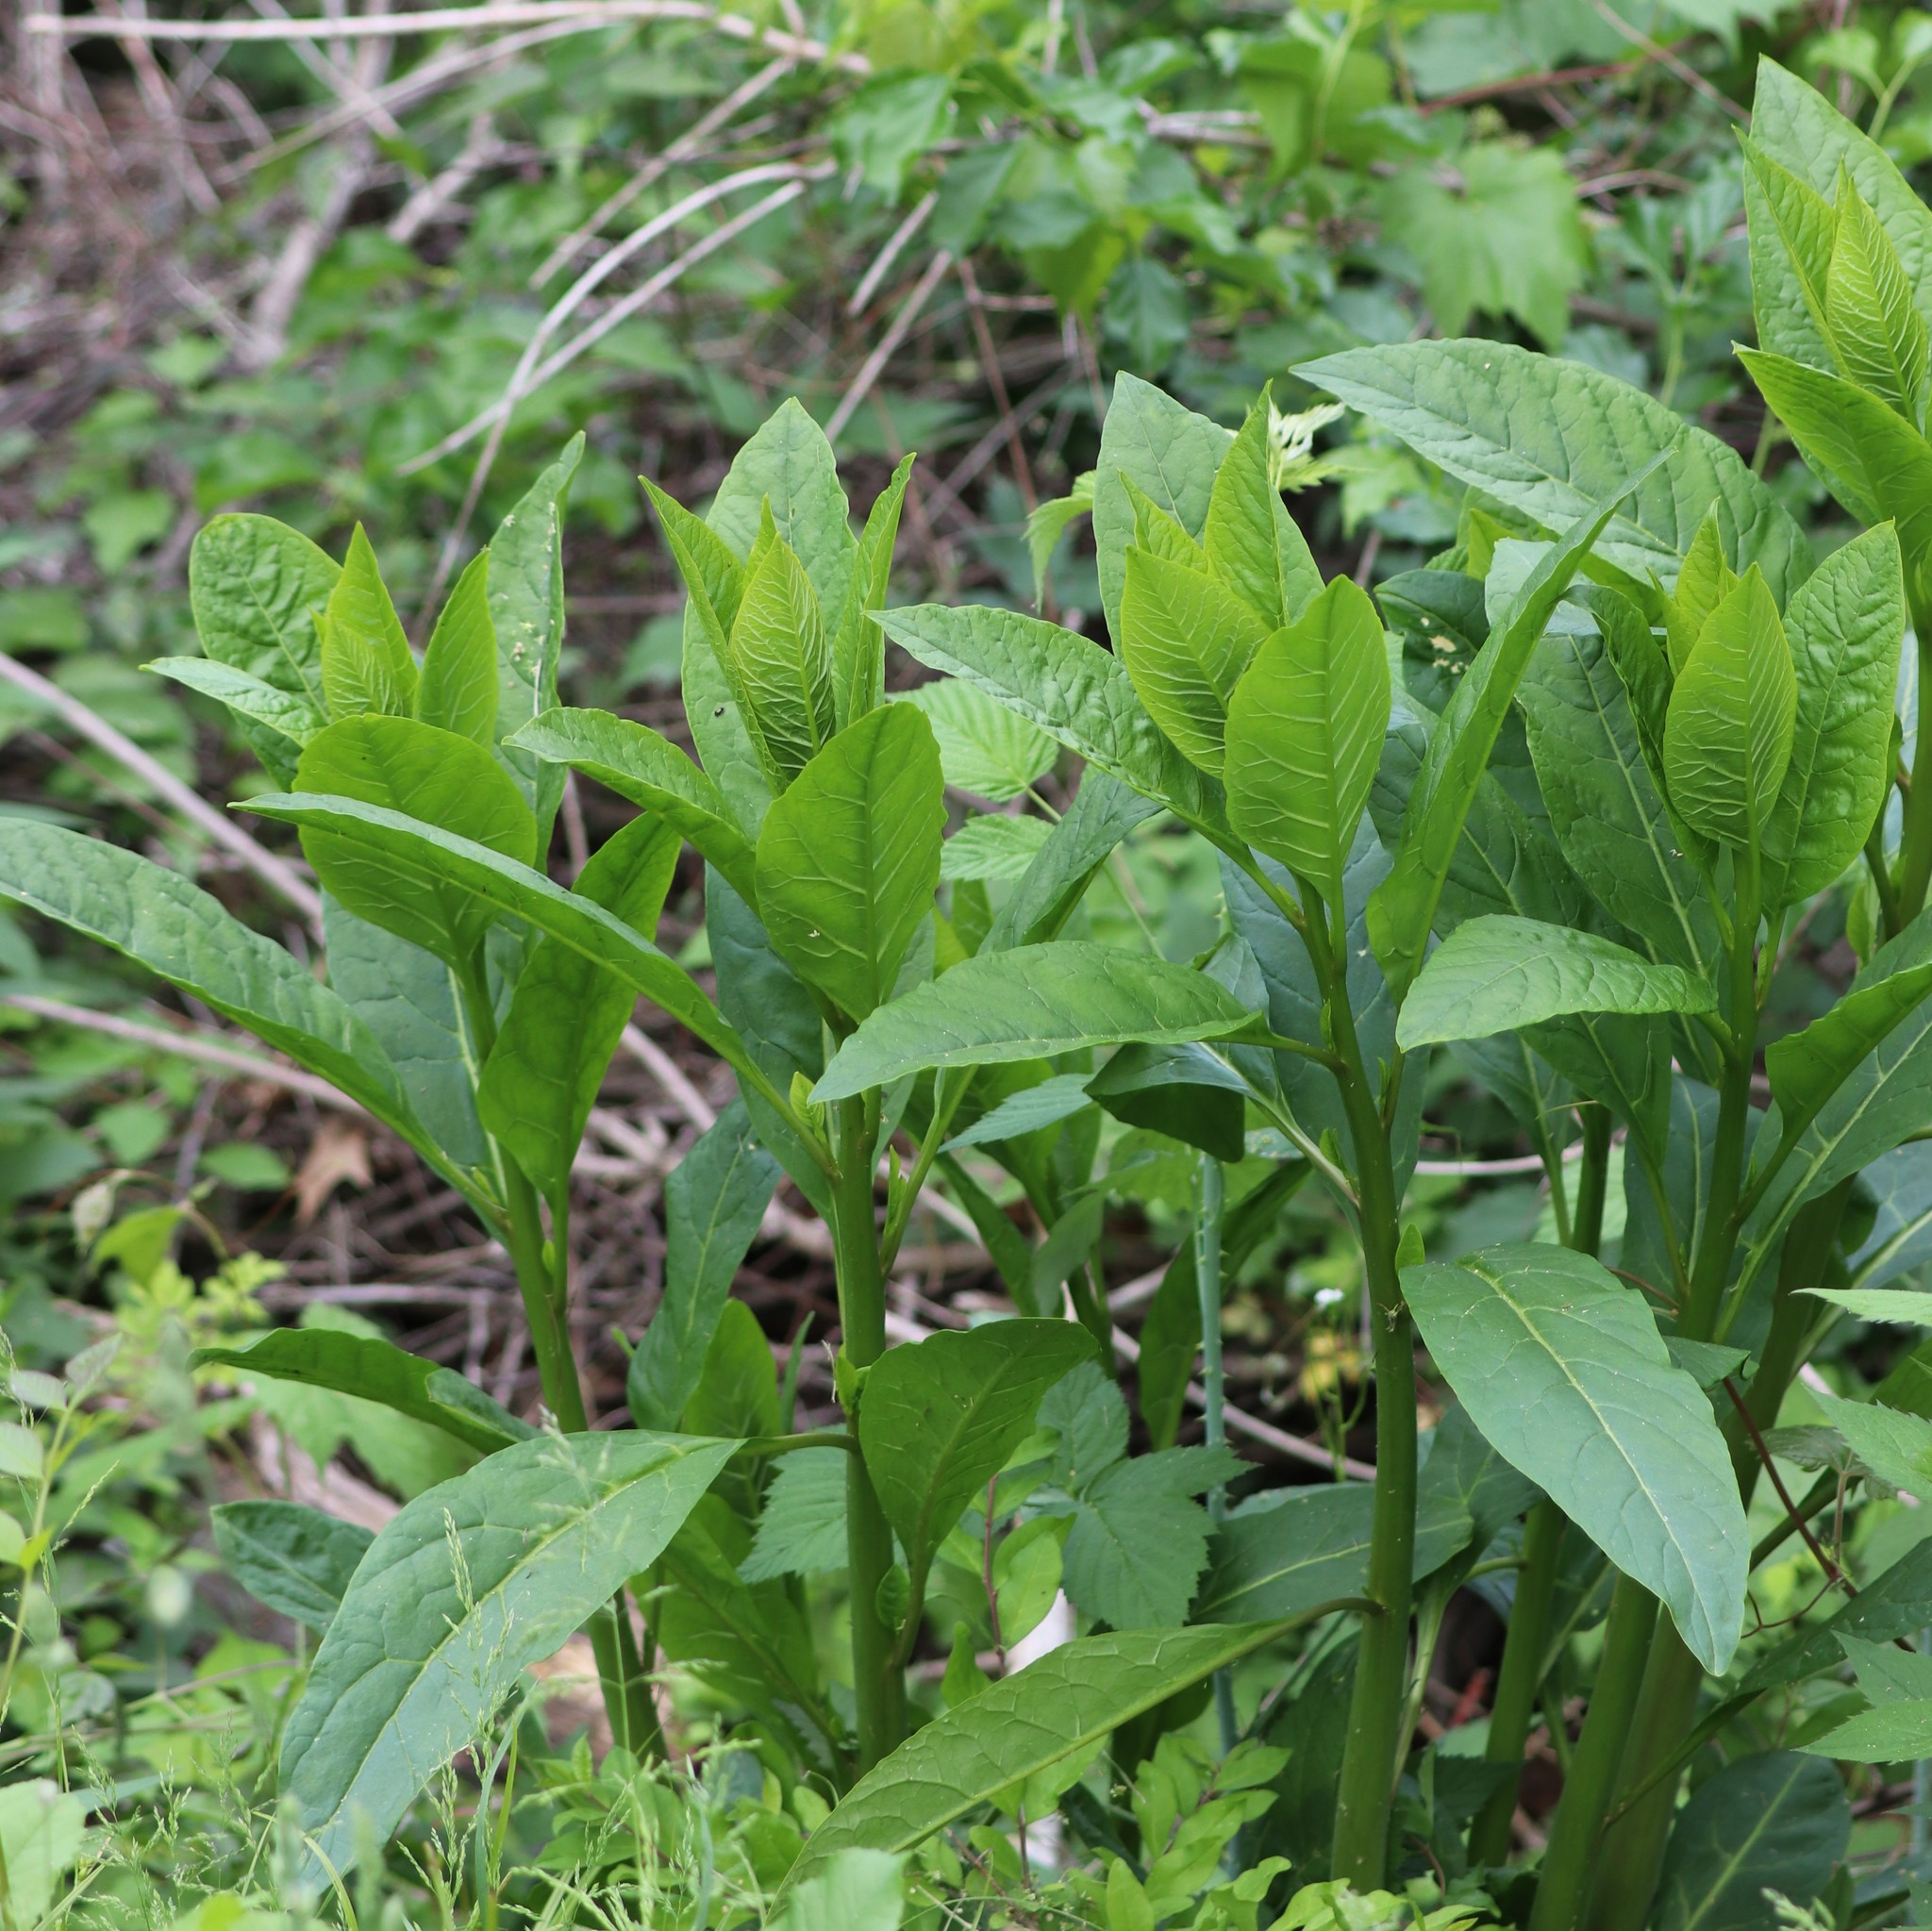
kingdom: Plantae
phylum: Tracheophyta
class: Magnoliopsida
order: Caryophyllales
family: Phytolaccaceae
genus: Phytolacca
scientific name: Phytolacca americana
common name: American pokeweed
